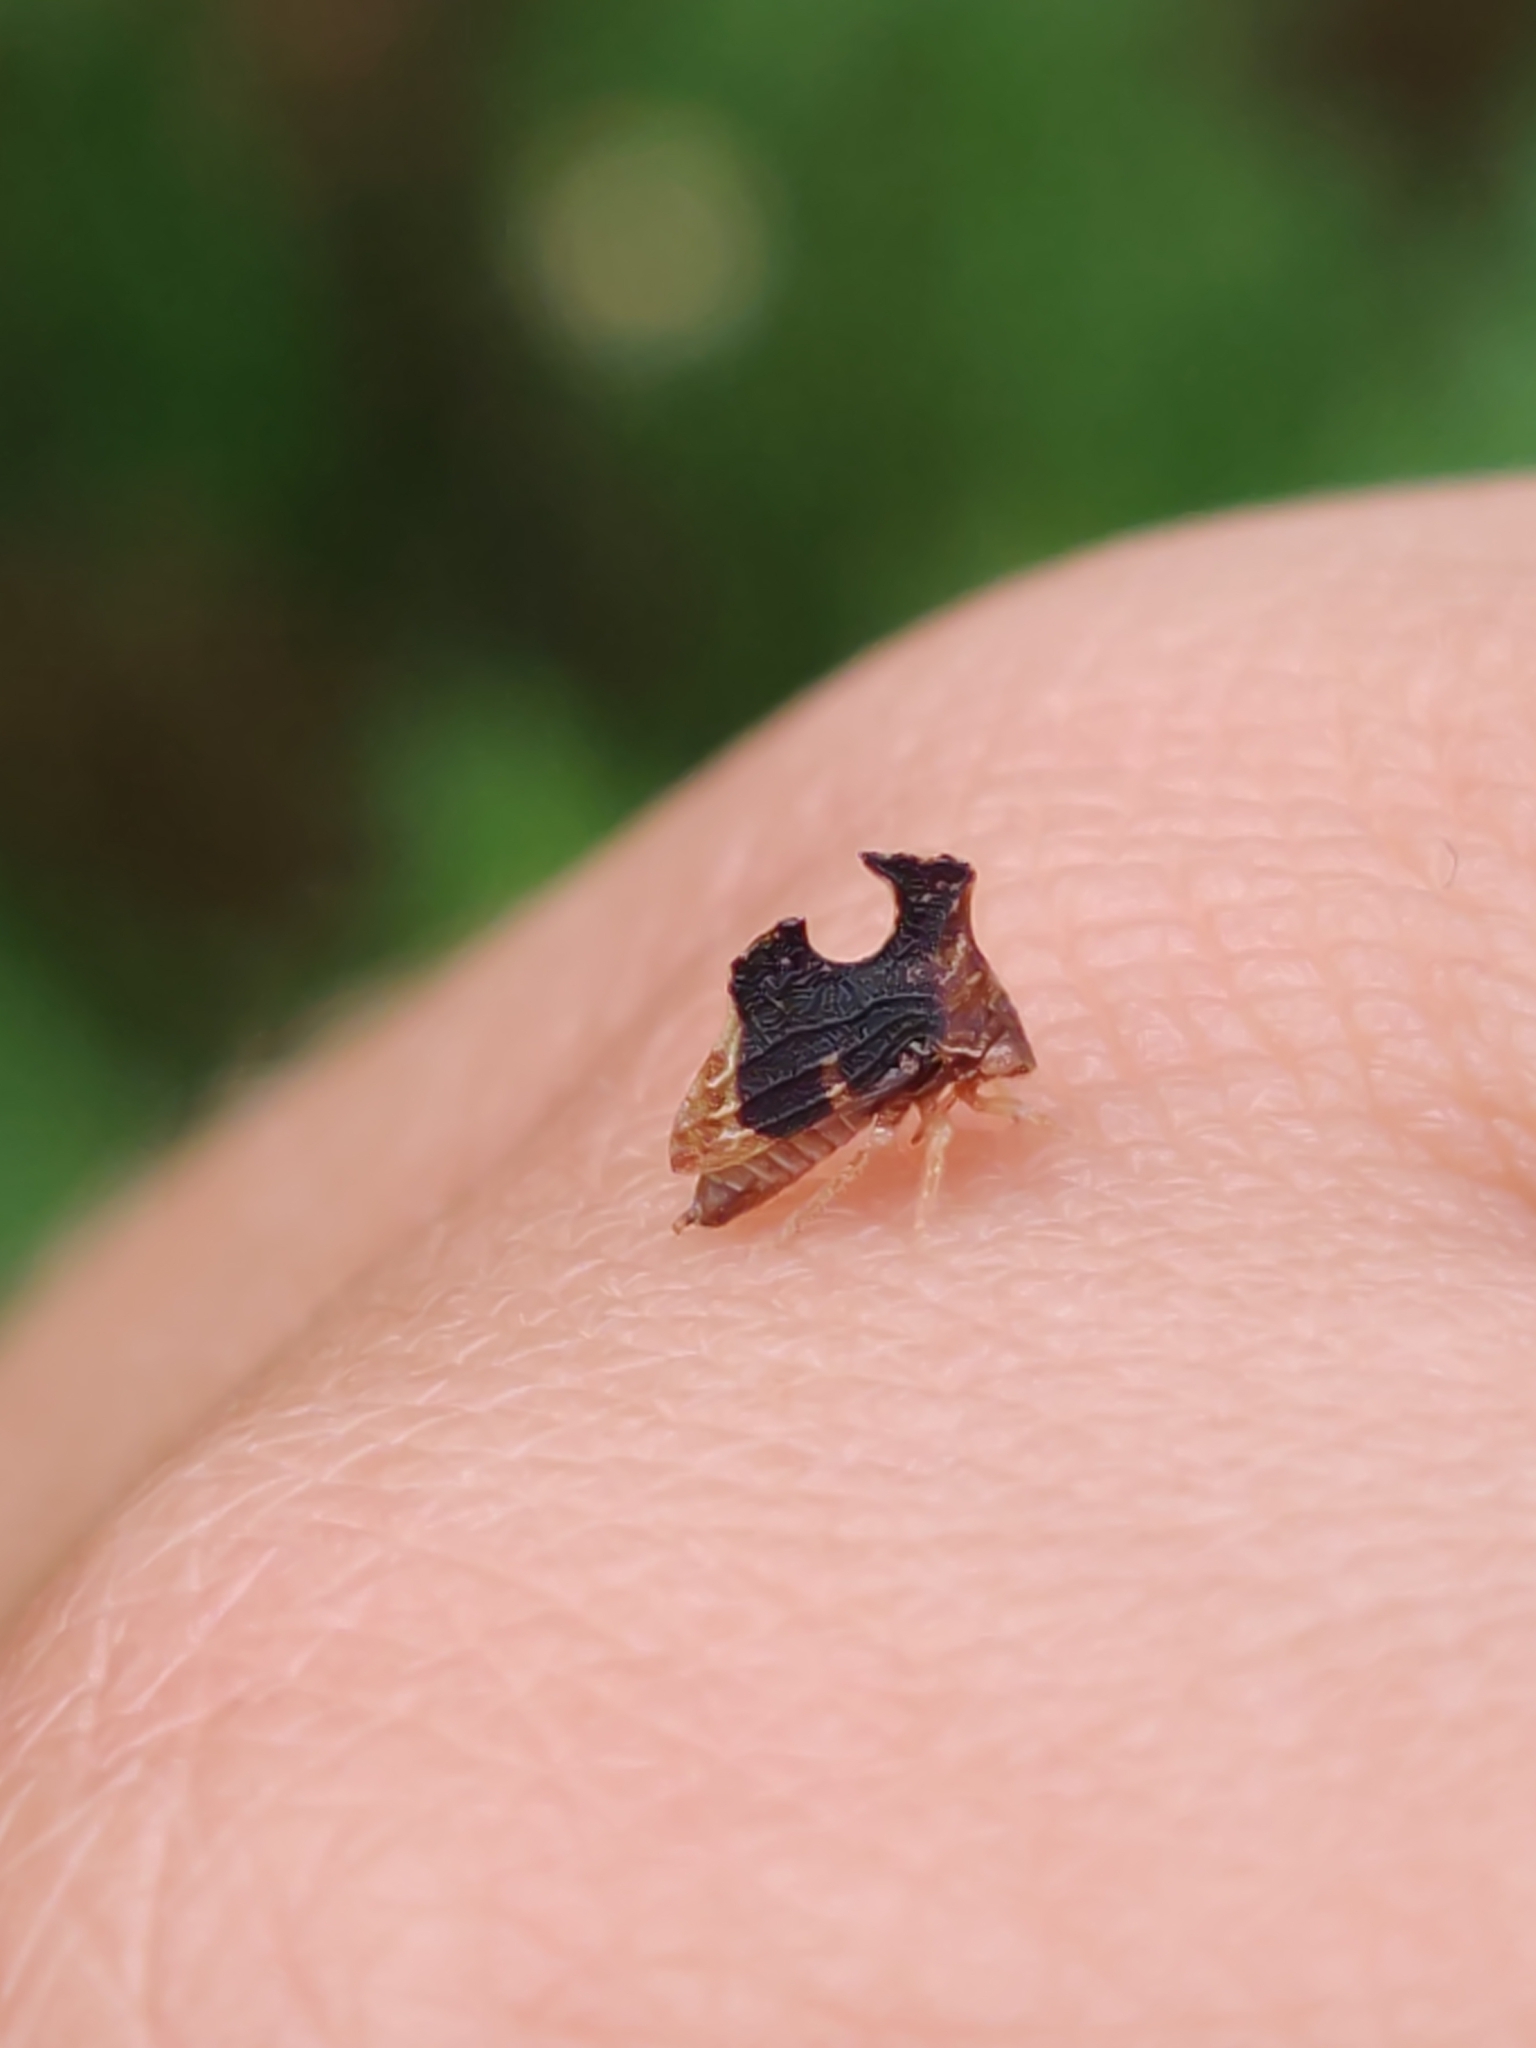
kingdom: Animalia
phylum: Arthropoda
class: Insecta
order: Hemiptera
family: Membracidae
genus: Entylia
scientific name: Entylia carinata
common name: Keeled treehopper
